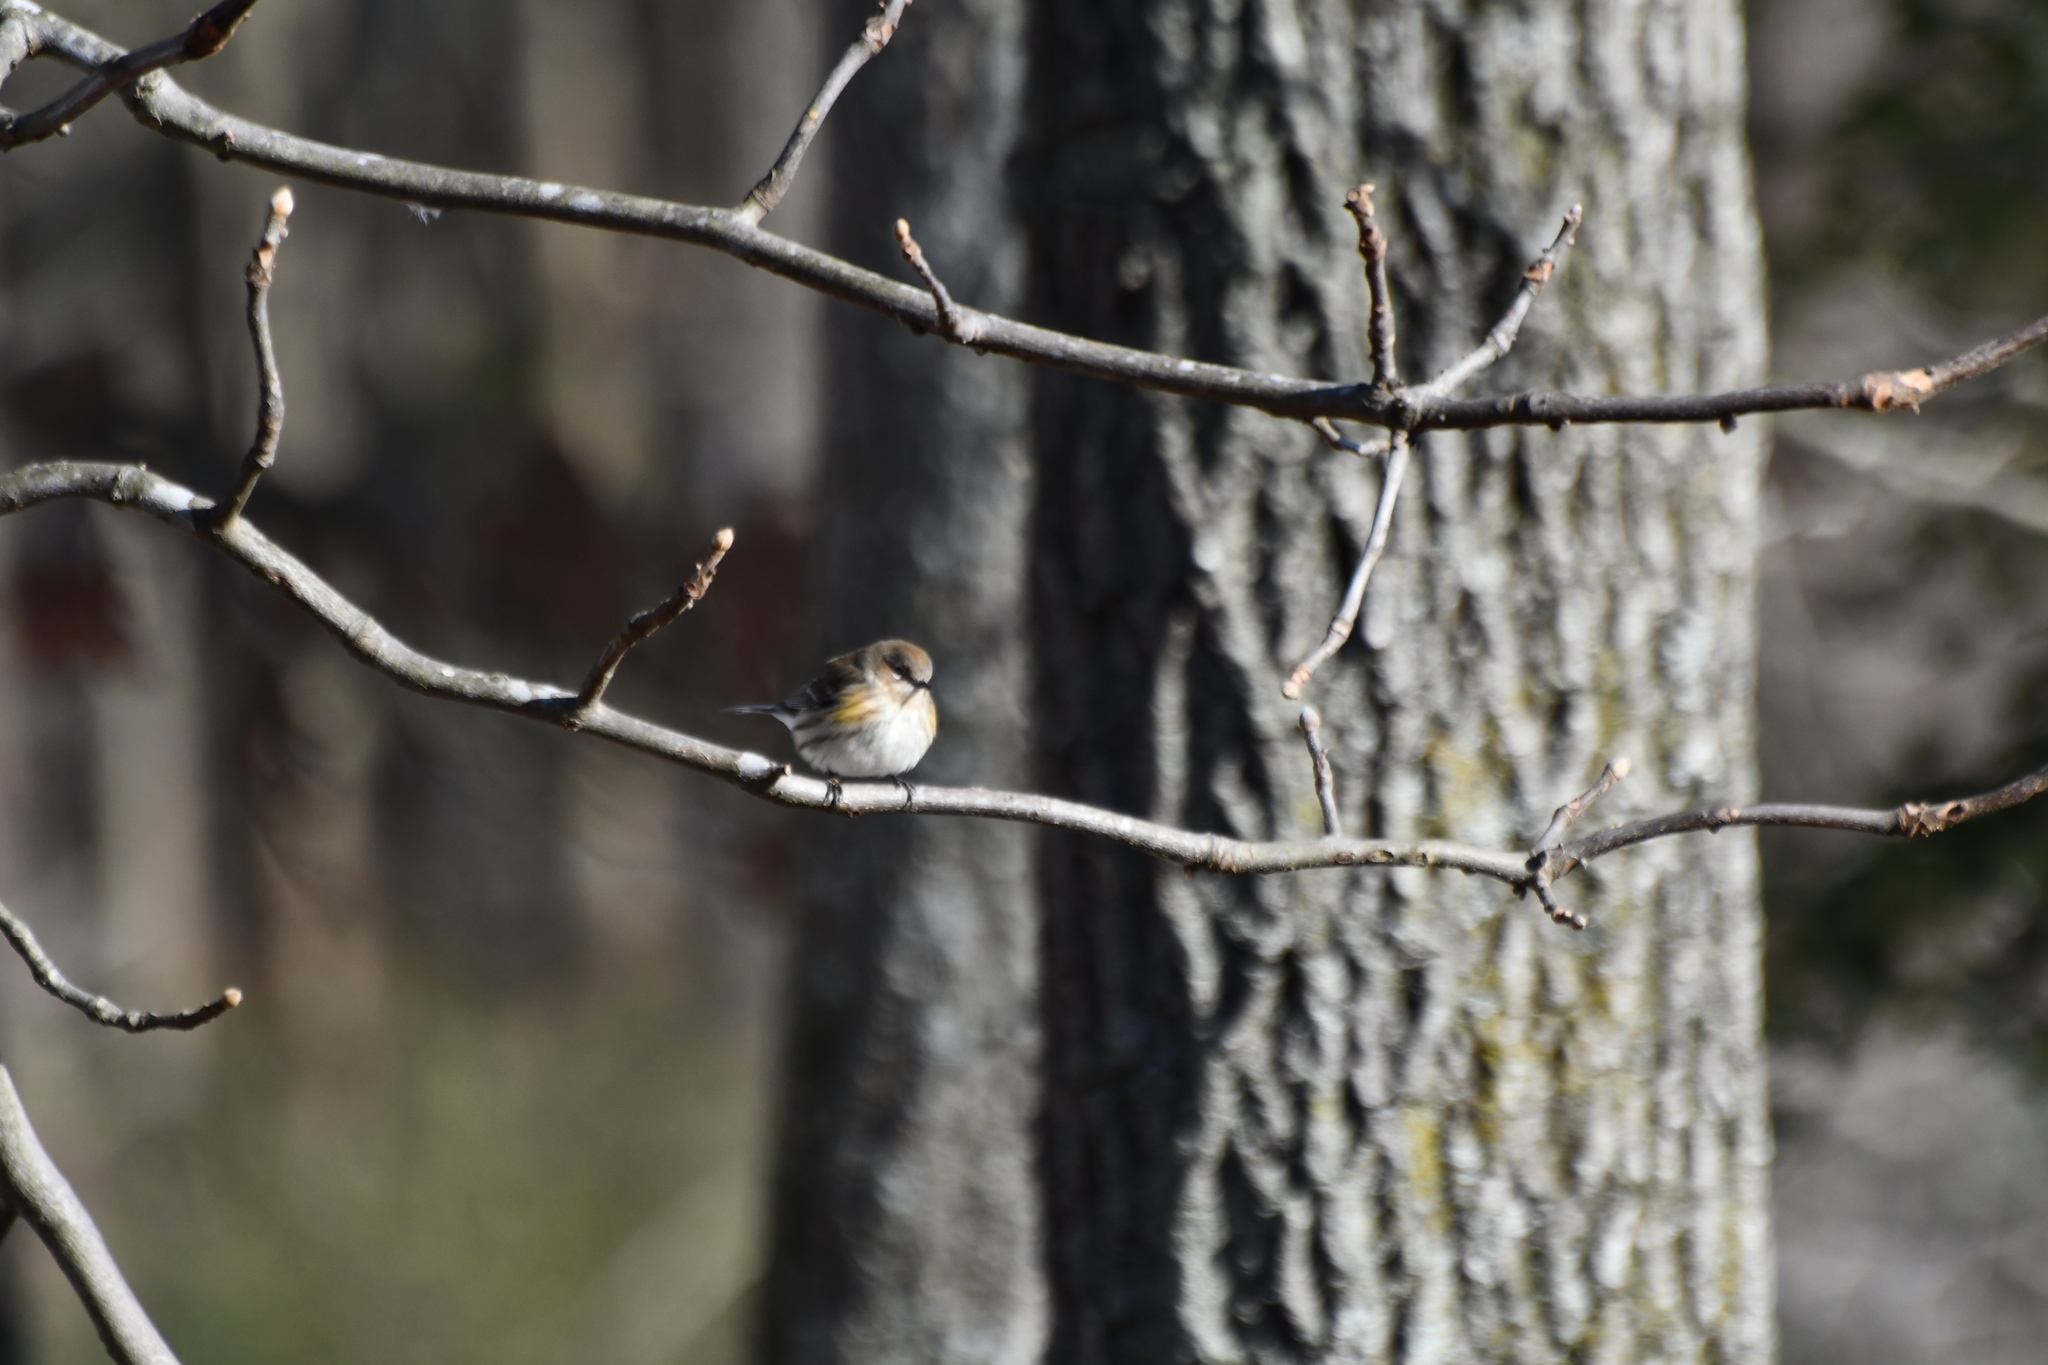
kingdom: Animalia
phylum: Chordata
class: Aves
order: Passeriformes
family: Parulidae
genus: Setophaga
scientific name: Setophaga coronata
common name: Myrtle warbler
